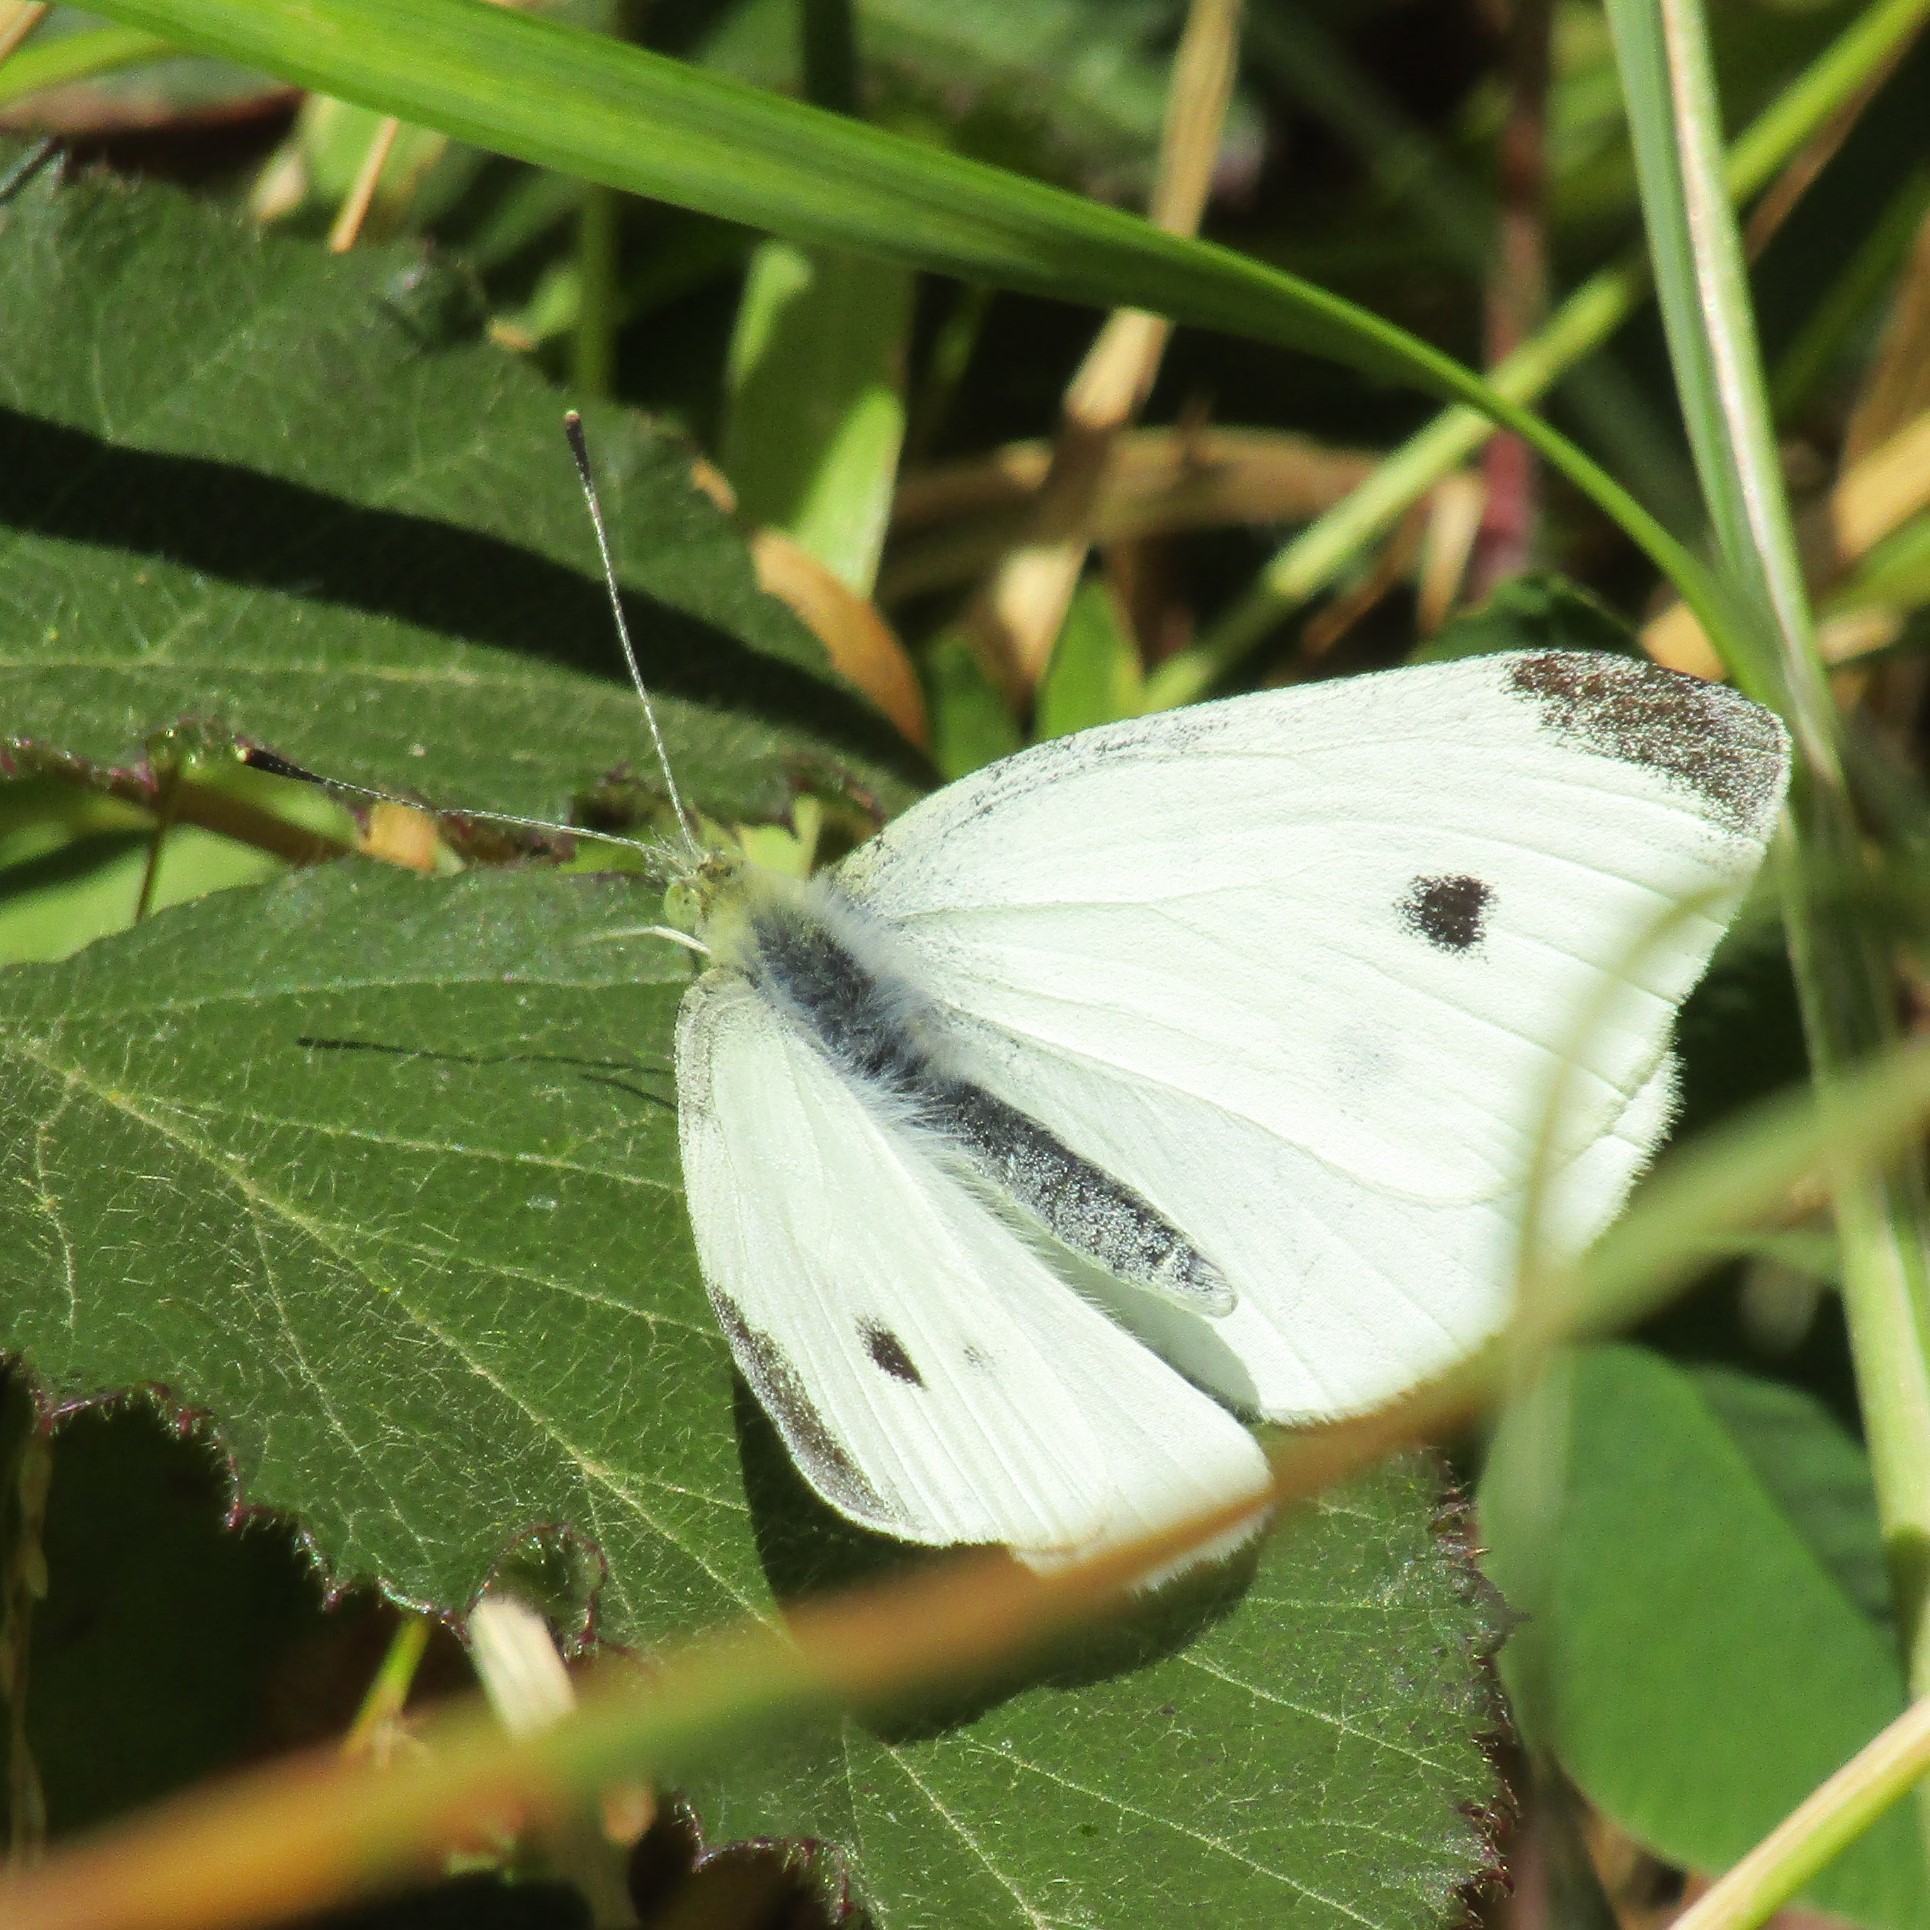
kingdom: Animalia
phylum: Arthropoda
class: Insecta
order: Lepidoptera
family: Pieridae
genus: Pieris
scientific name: Pieris rapae
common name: Small white
